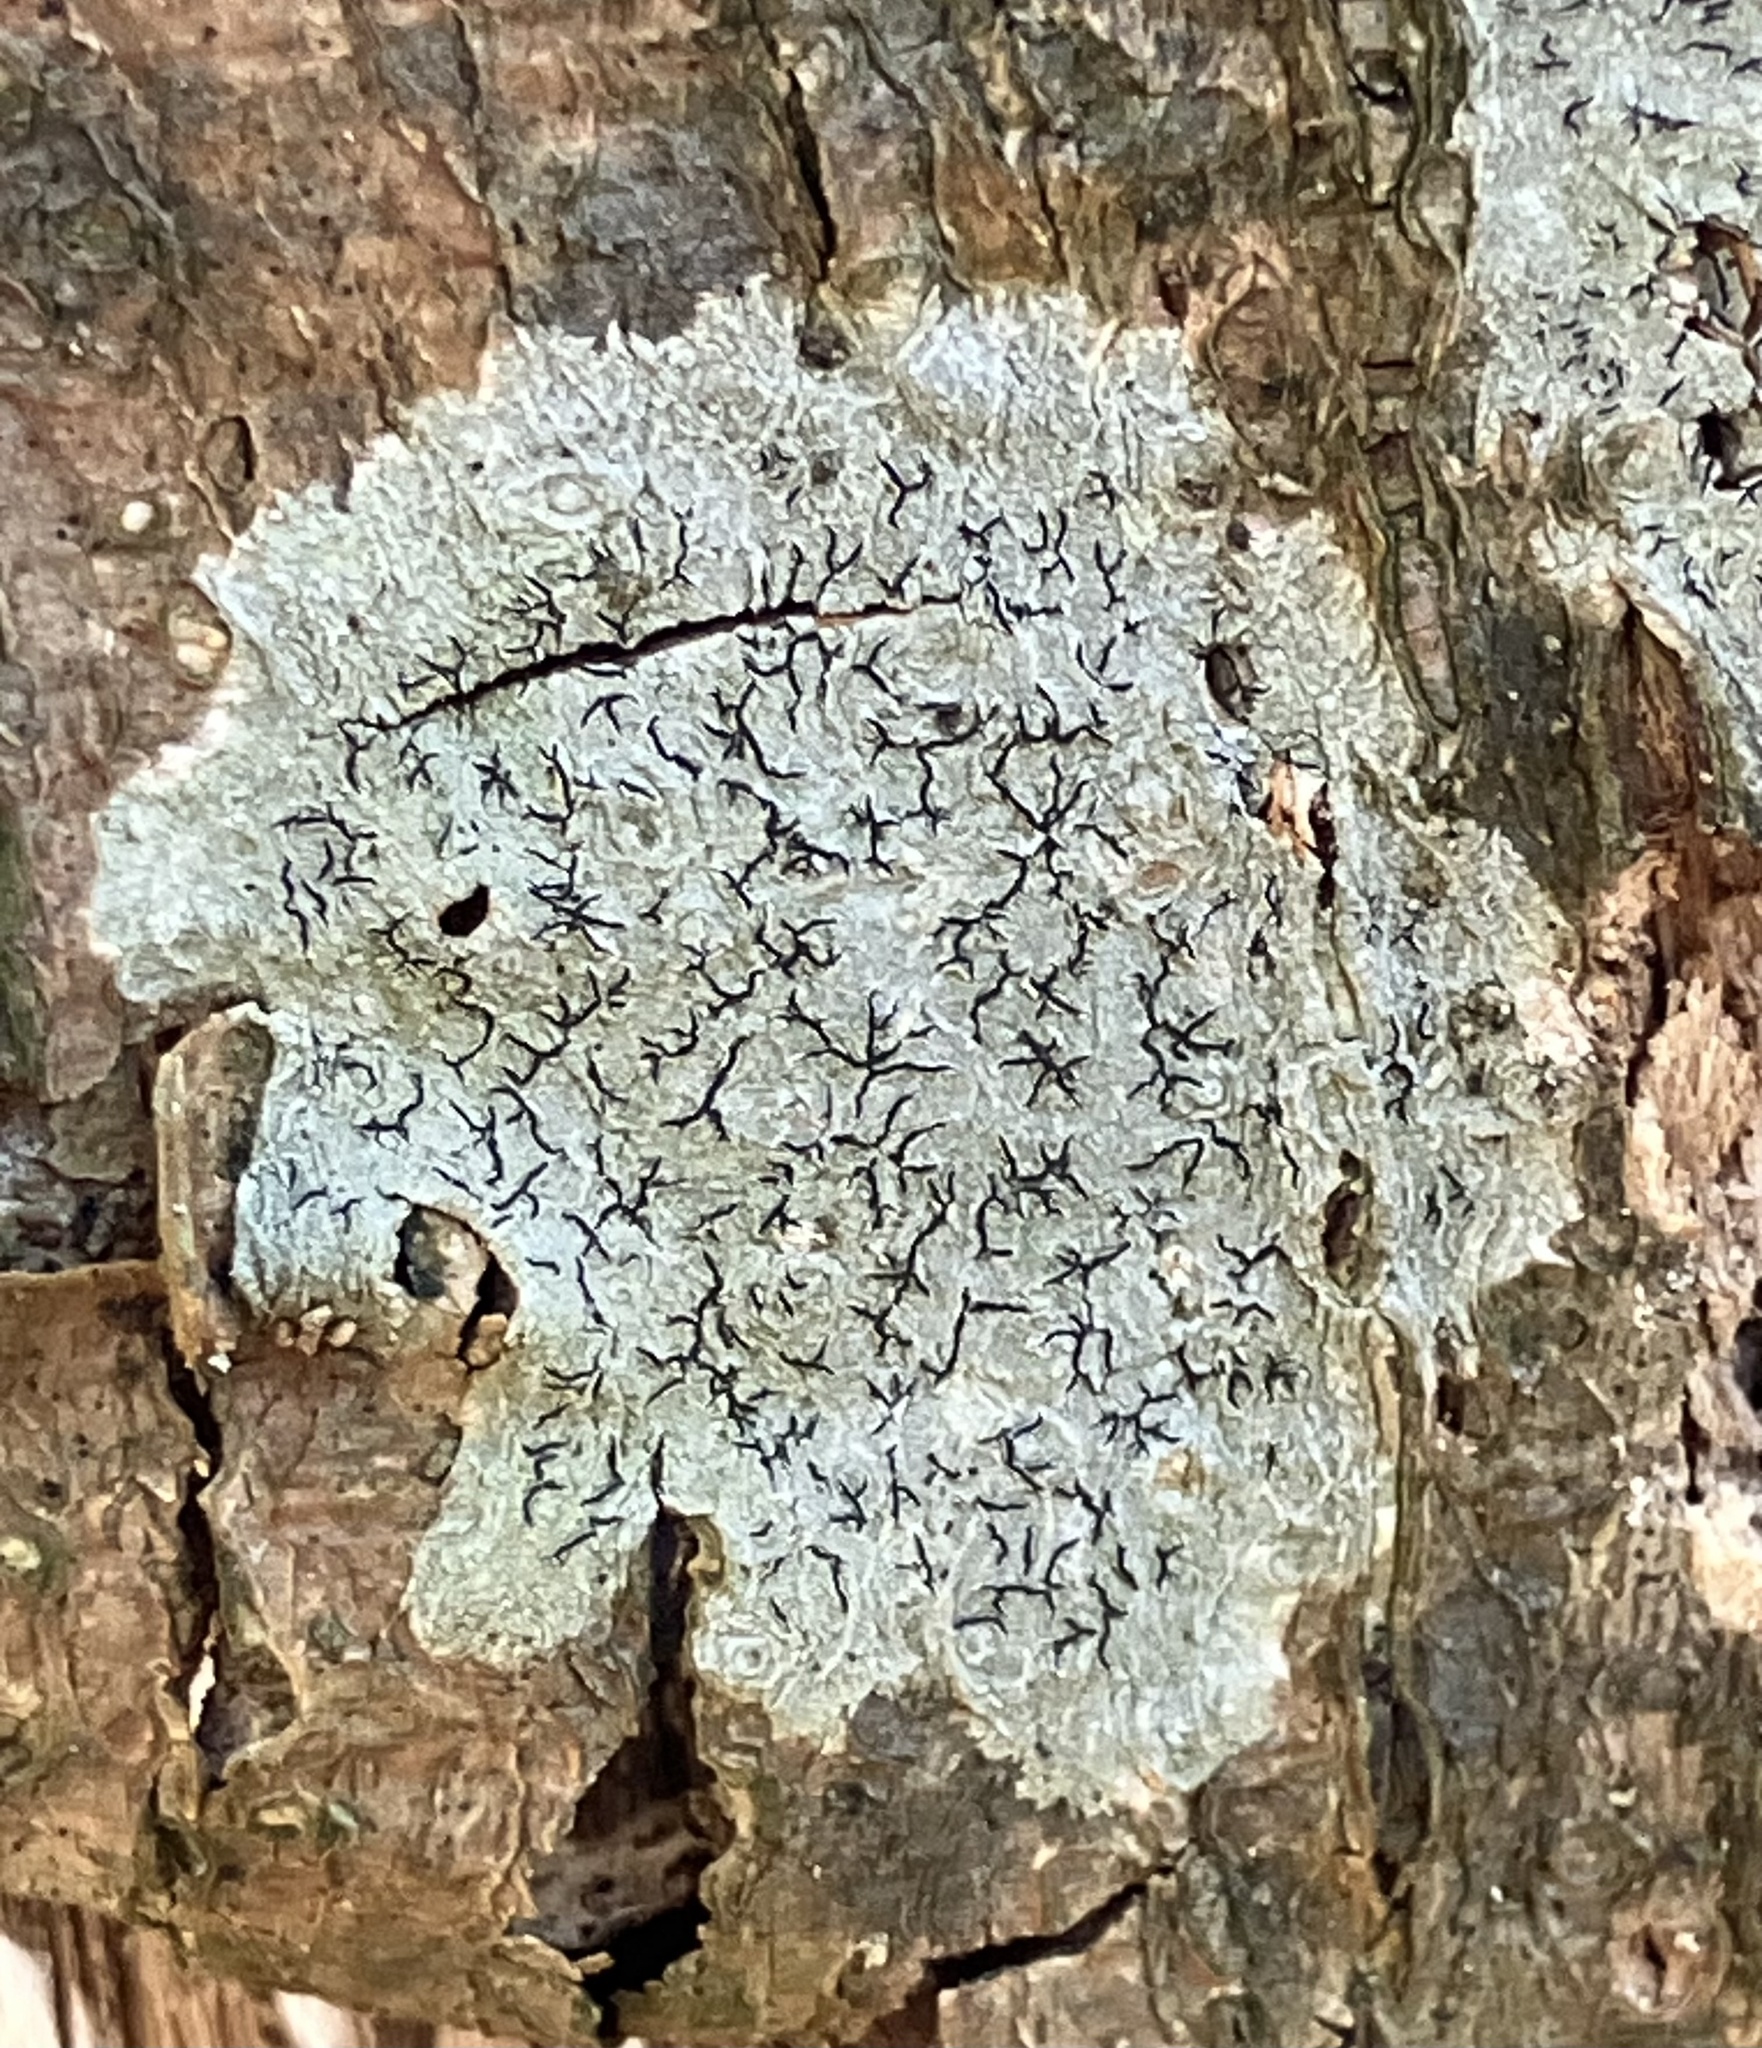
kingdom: Fungi
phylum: Ascomycota
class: Lecanoromycetes
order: Ostropales
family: Graphidaceae
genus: Graphis
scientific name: Graphis scripta
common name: Script lichen
